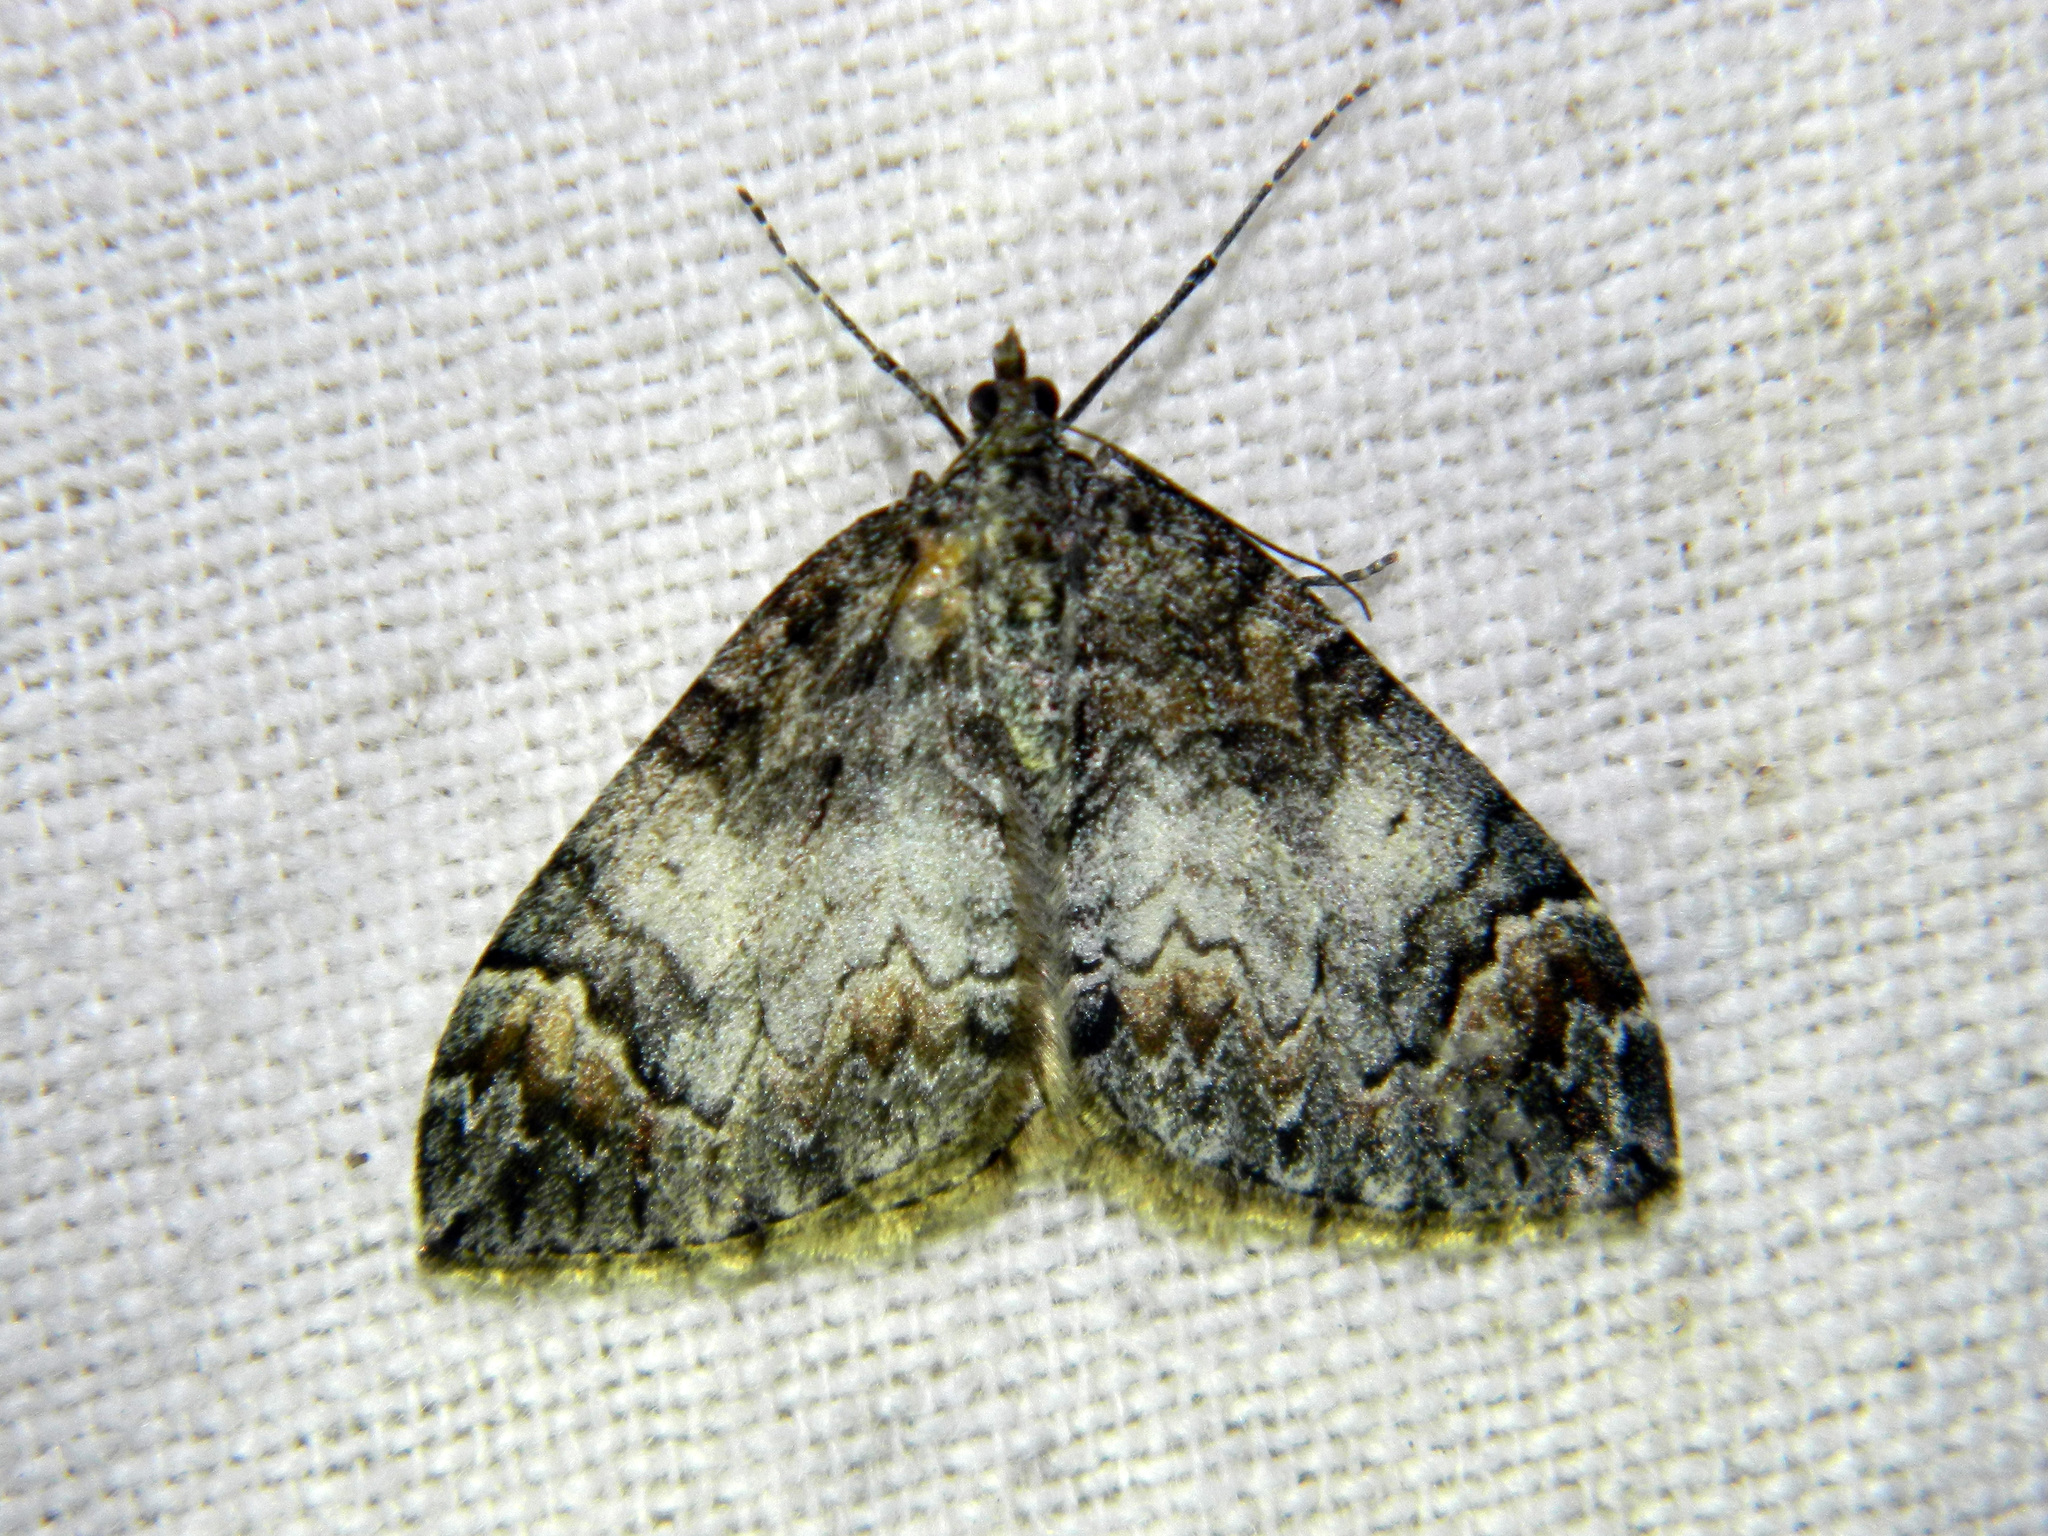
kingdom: Animalia
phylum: Arthropoda
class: Insecta
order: Lepidoptera
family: Geometridae
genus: Dysstroma
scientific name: Dysstroma citrata
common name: Dark marbled carpet
